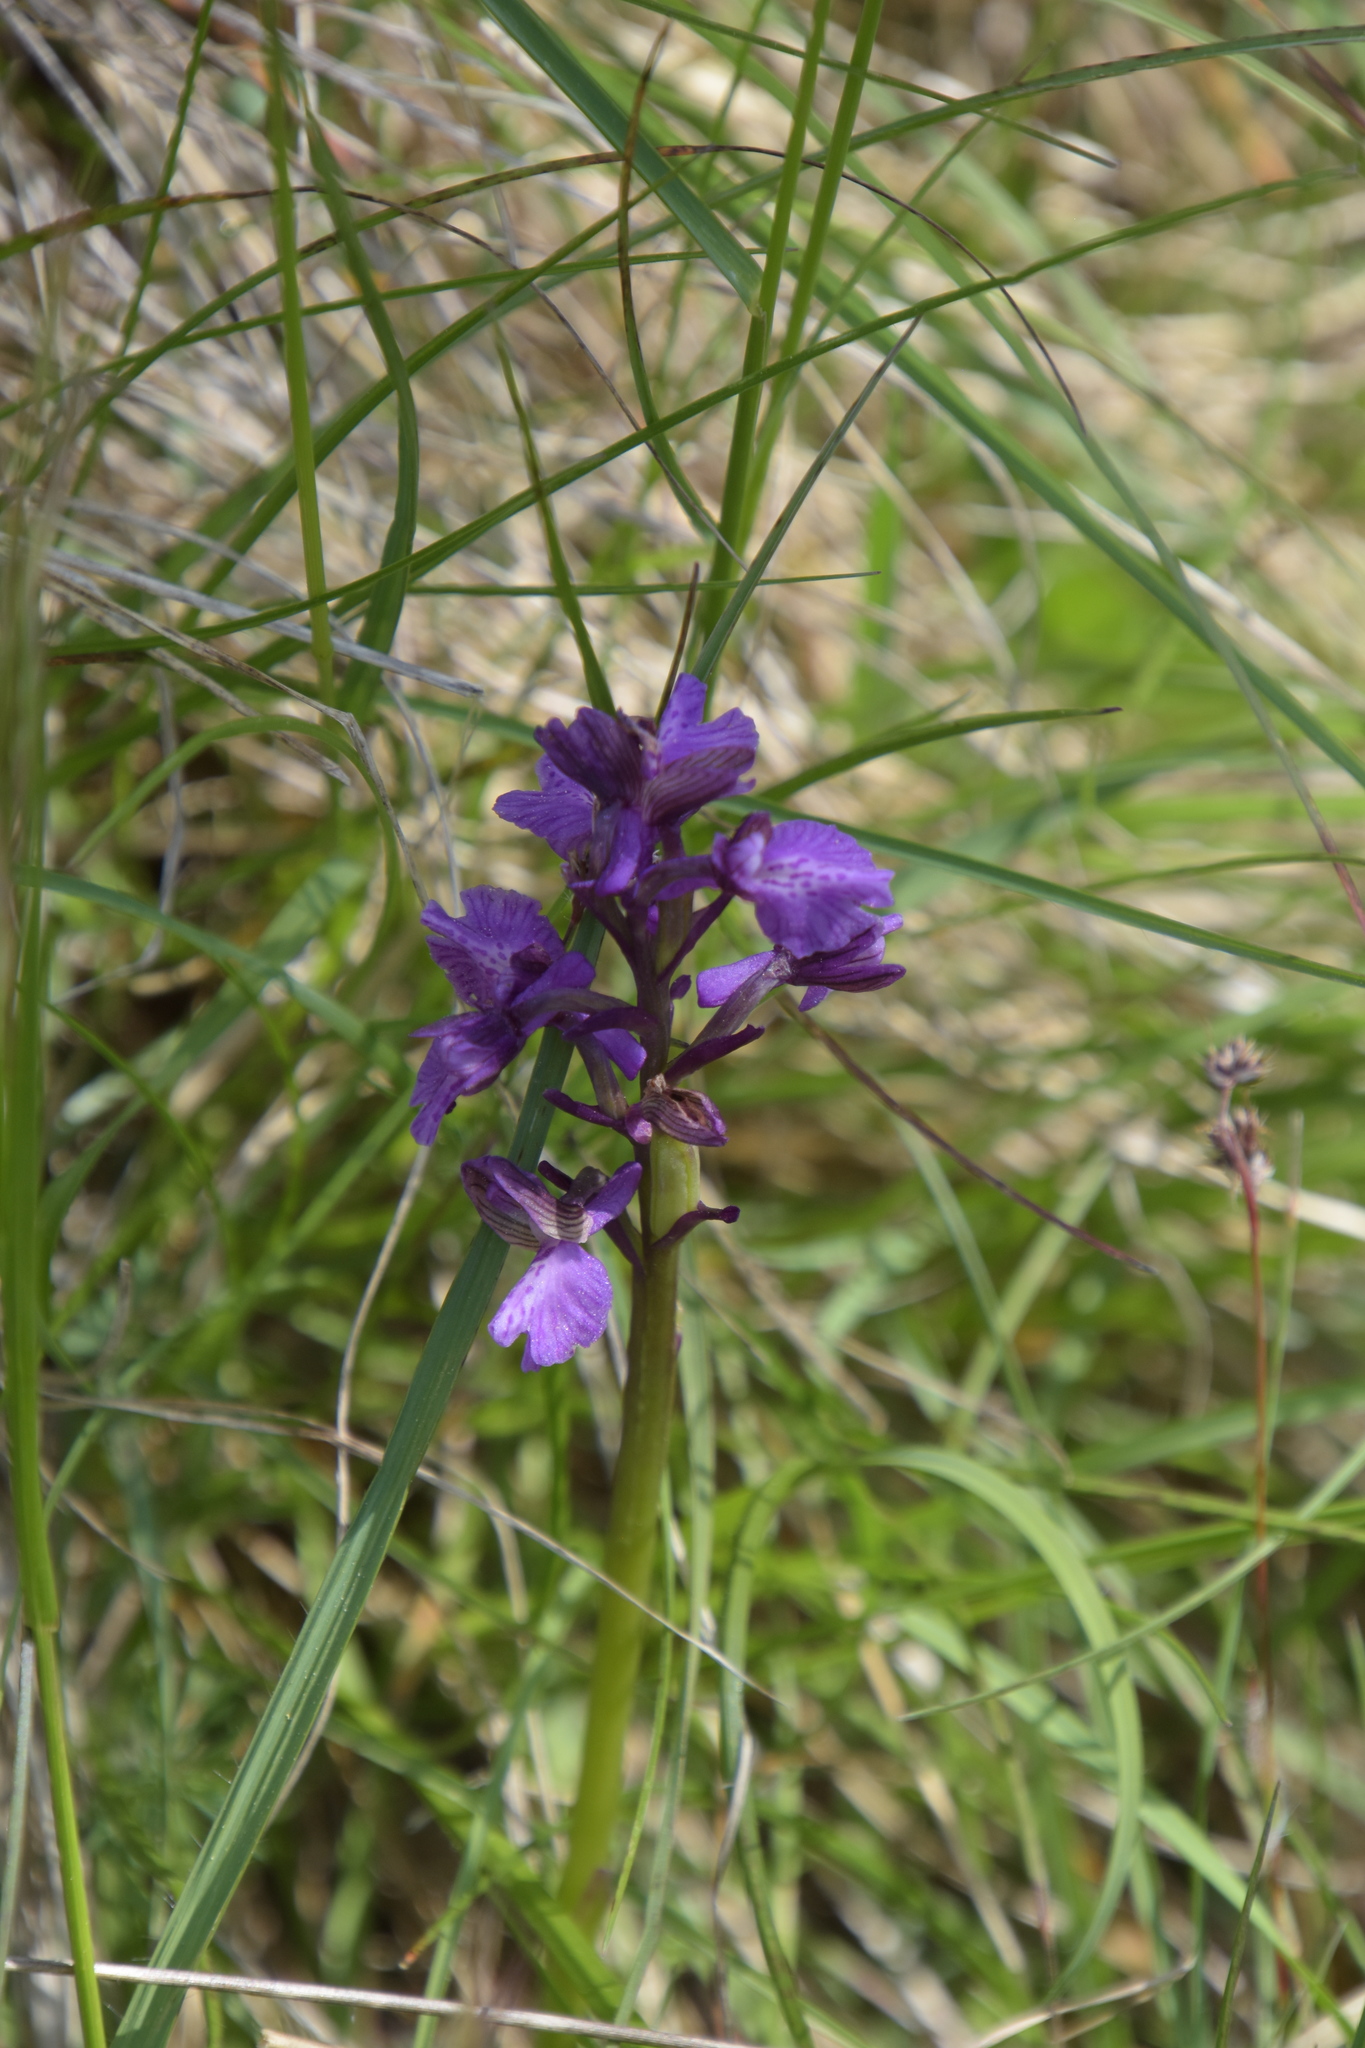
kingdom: Plantae
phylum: Tracheophyta
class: Liliopsida
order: Asparagales
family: Orchidaceae
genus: Anacamptis
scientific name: Anacamptis morio
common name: Green-winged orchid
